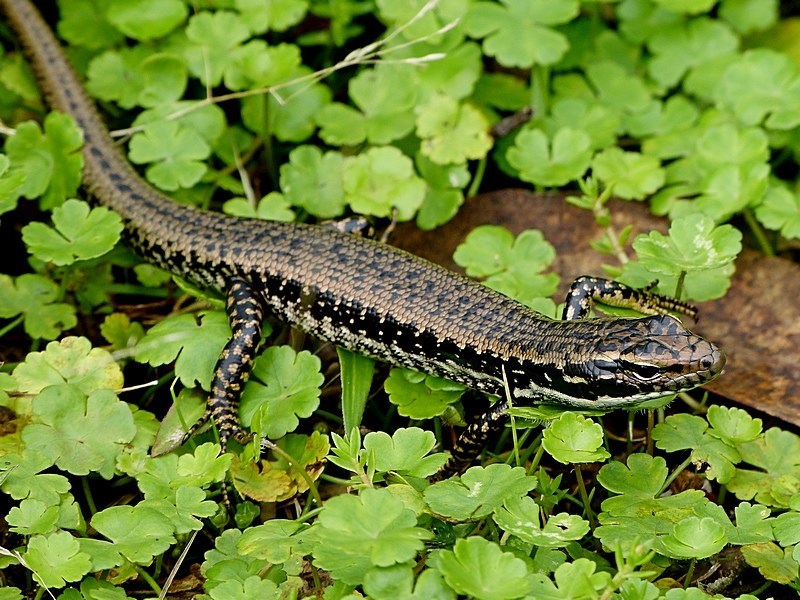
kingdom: Animalia
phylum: Chordata
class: Squamata
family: Scincidae
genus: Eulamprus
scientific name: Eulamprus heatwolei
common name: Warm-temperate water-skink
